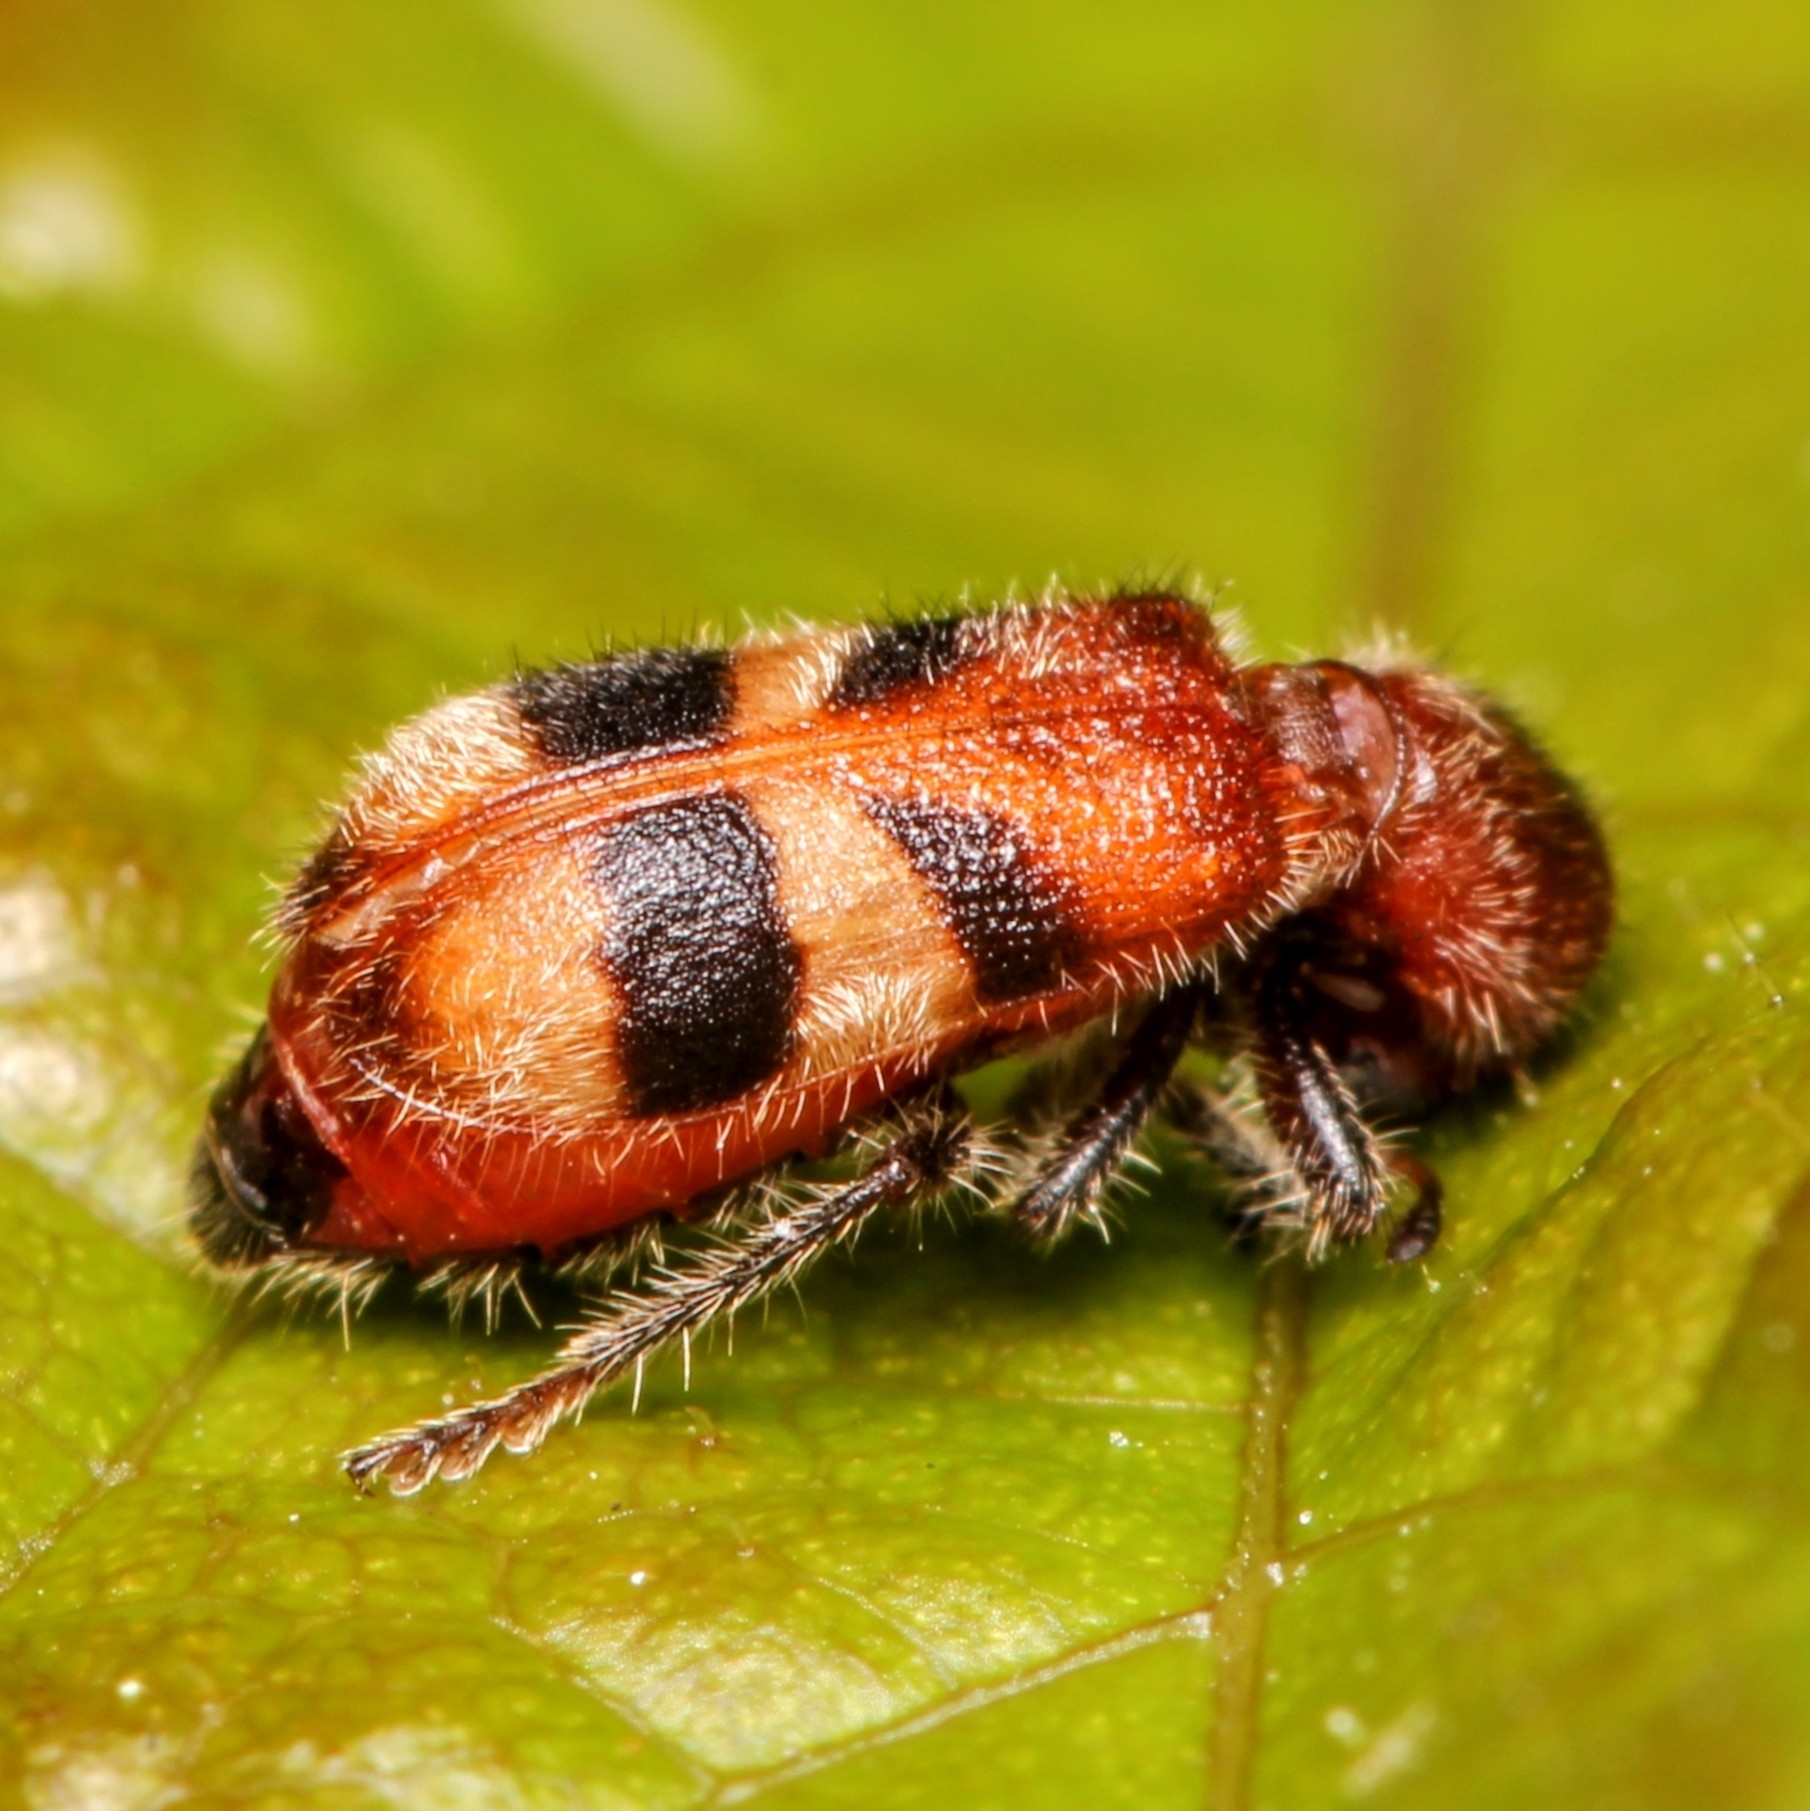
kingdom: Animalia
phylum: Arthropoda
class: Insecta
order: Coleoptera
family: Cleridae
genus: Enoclerus
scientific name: Enoclerus rosmarus
